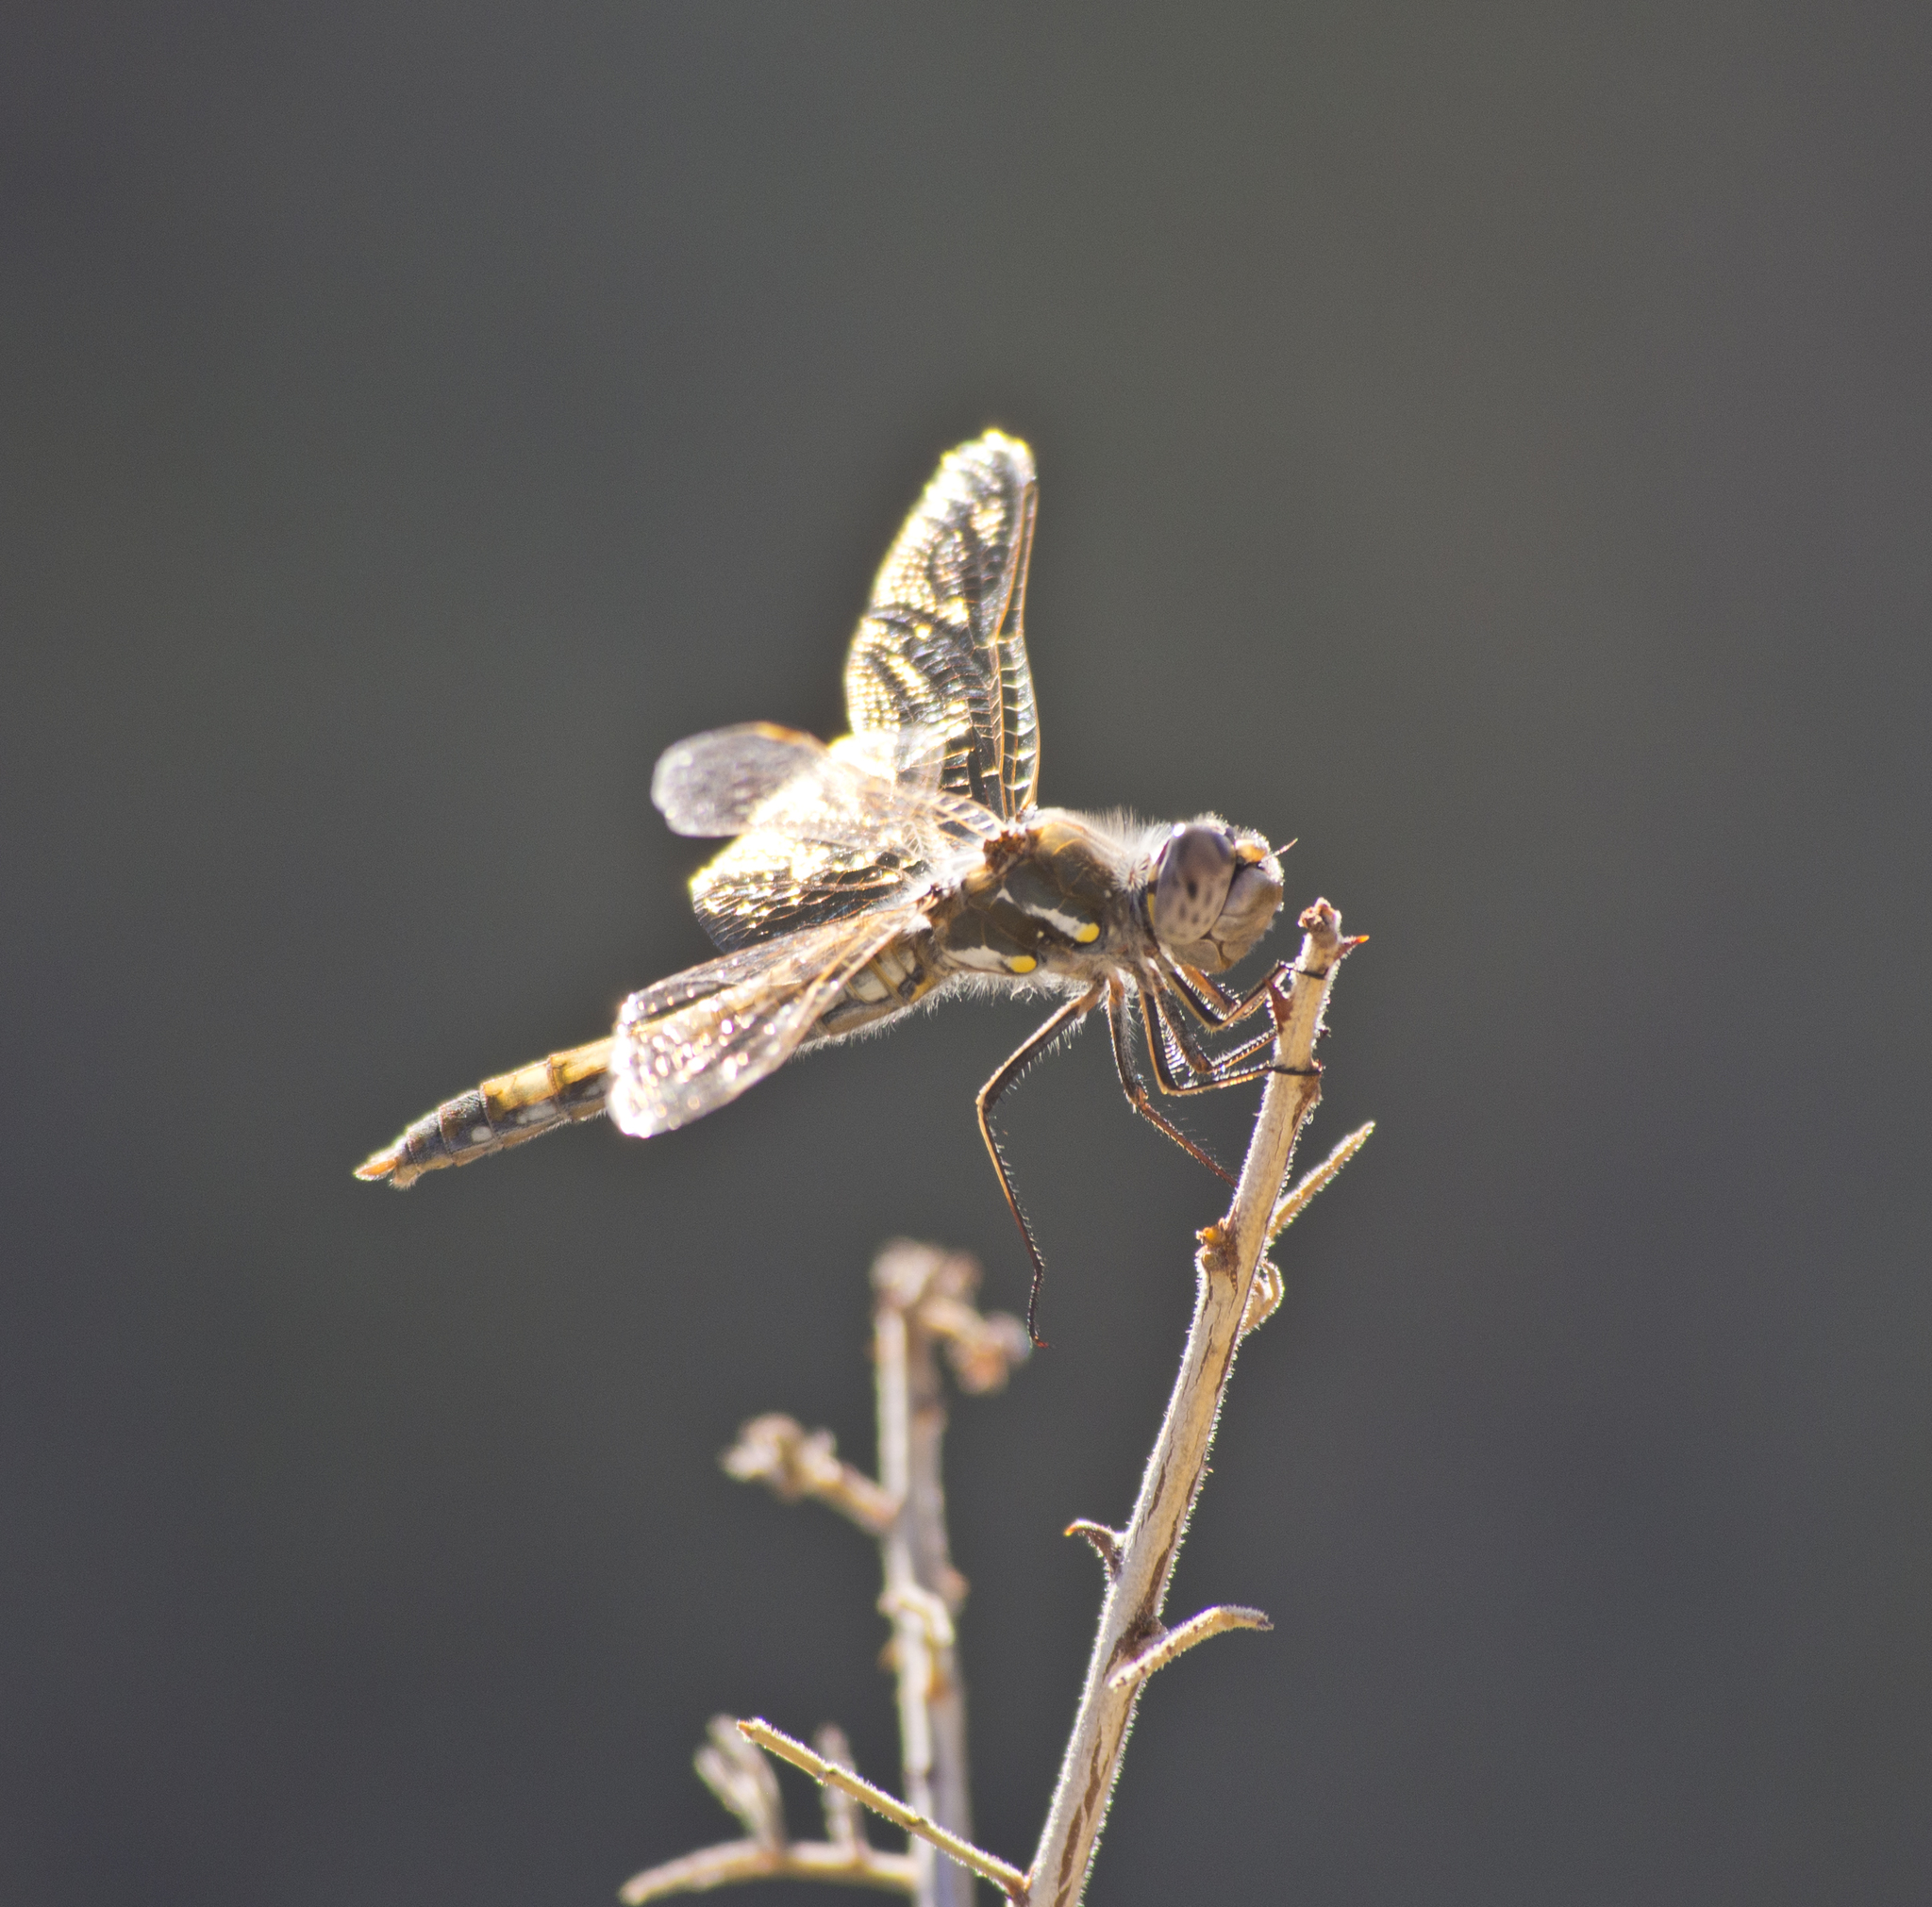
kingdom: Animalia
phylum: Arthropoda
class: Insecta
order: Odonata
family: Libellulidae
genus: Sympetrum
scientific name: Sympetrum corruptum
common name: Variegated meadowhawk
